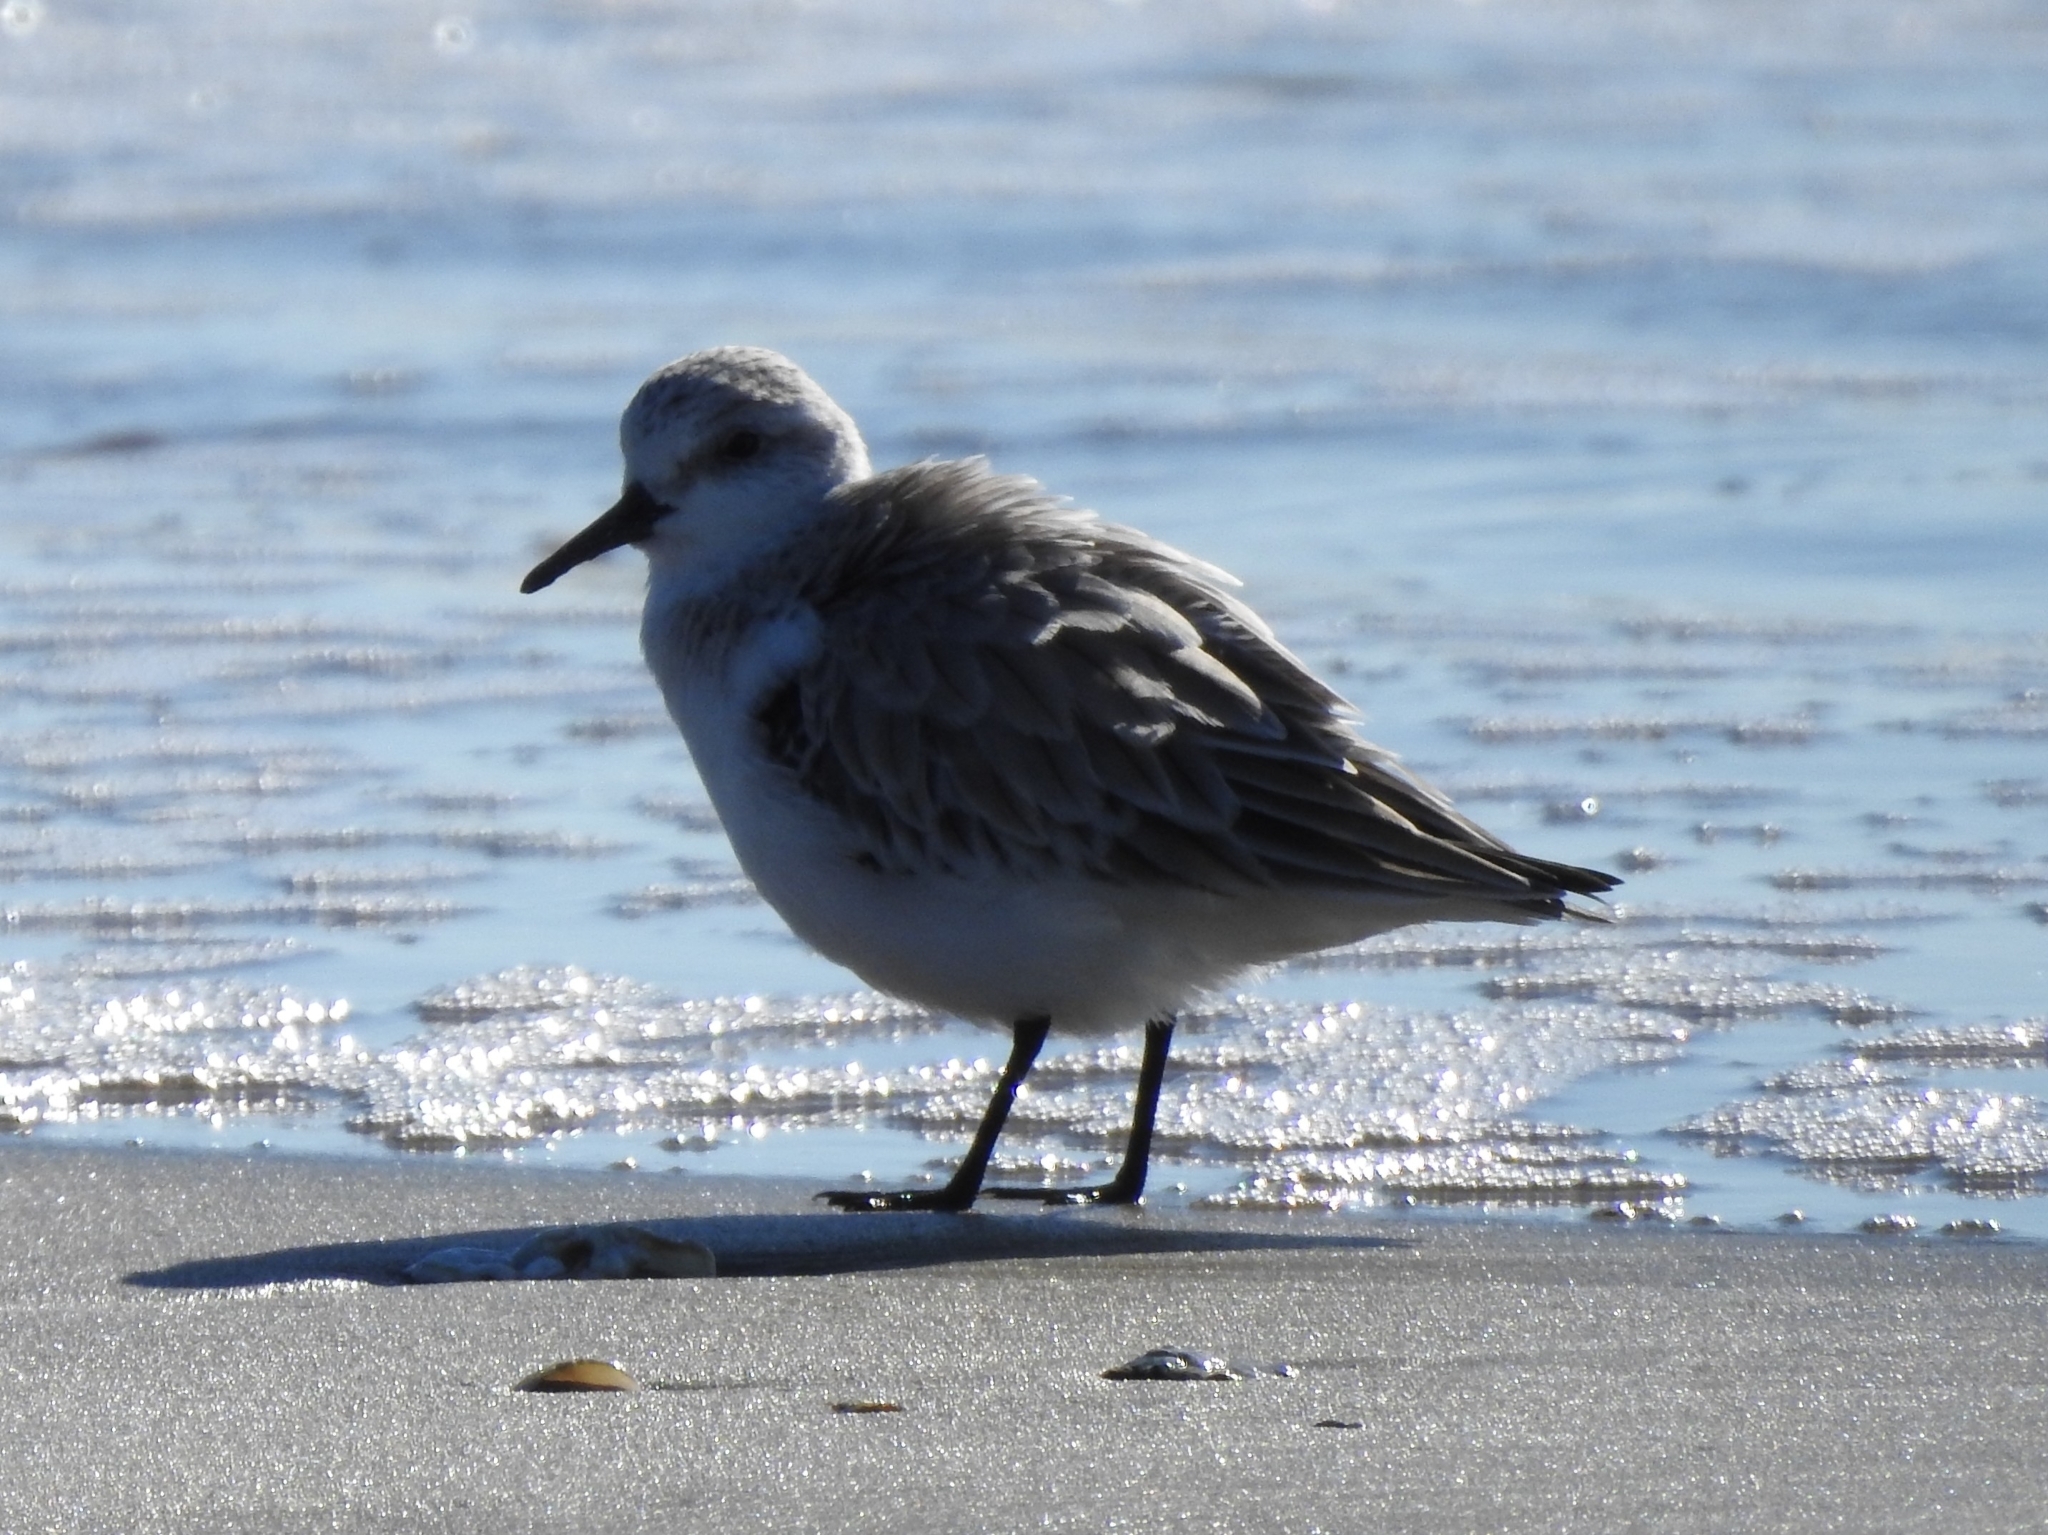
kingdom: Animalia
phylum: Chordata
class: Aves
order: Charadriiformes
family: Scolopacidae
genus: Calidris
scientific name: Calidris alba
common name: Sanderling
